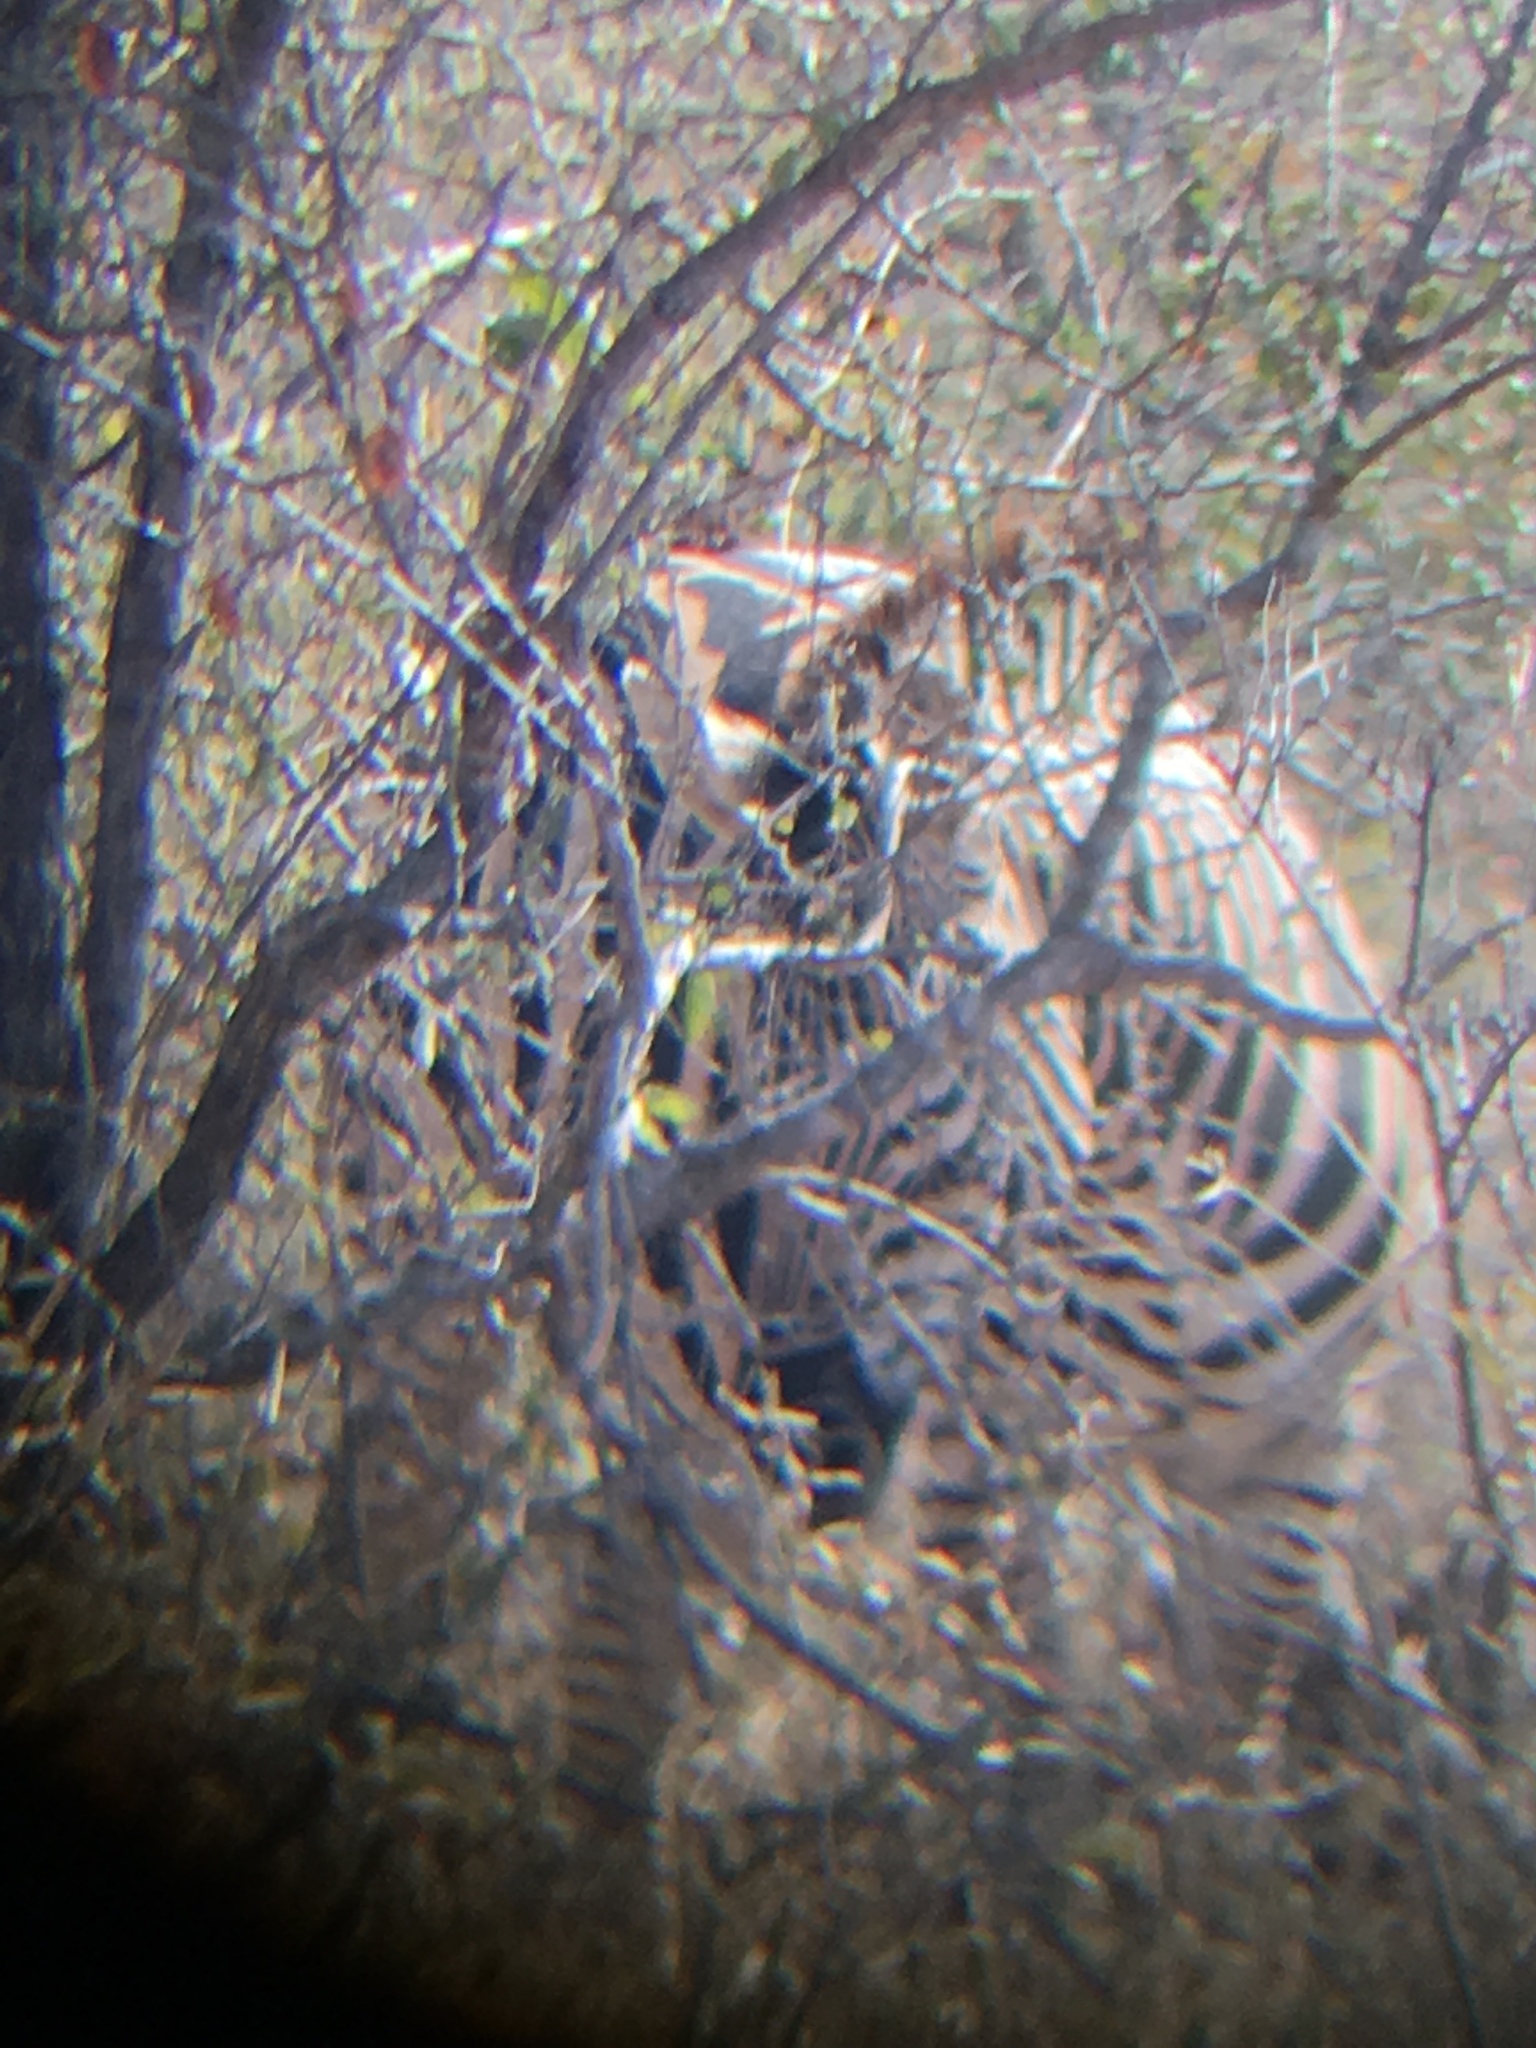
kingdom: Animalia
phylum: Chordata
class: Mammalia
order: Perissodactyla
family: Equidae
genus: Equus
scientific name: Equus quagga
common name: Plains zebra
